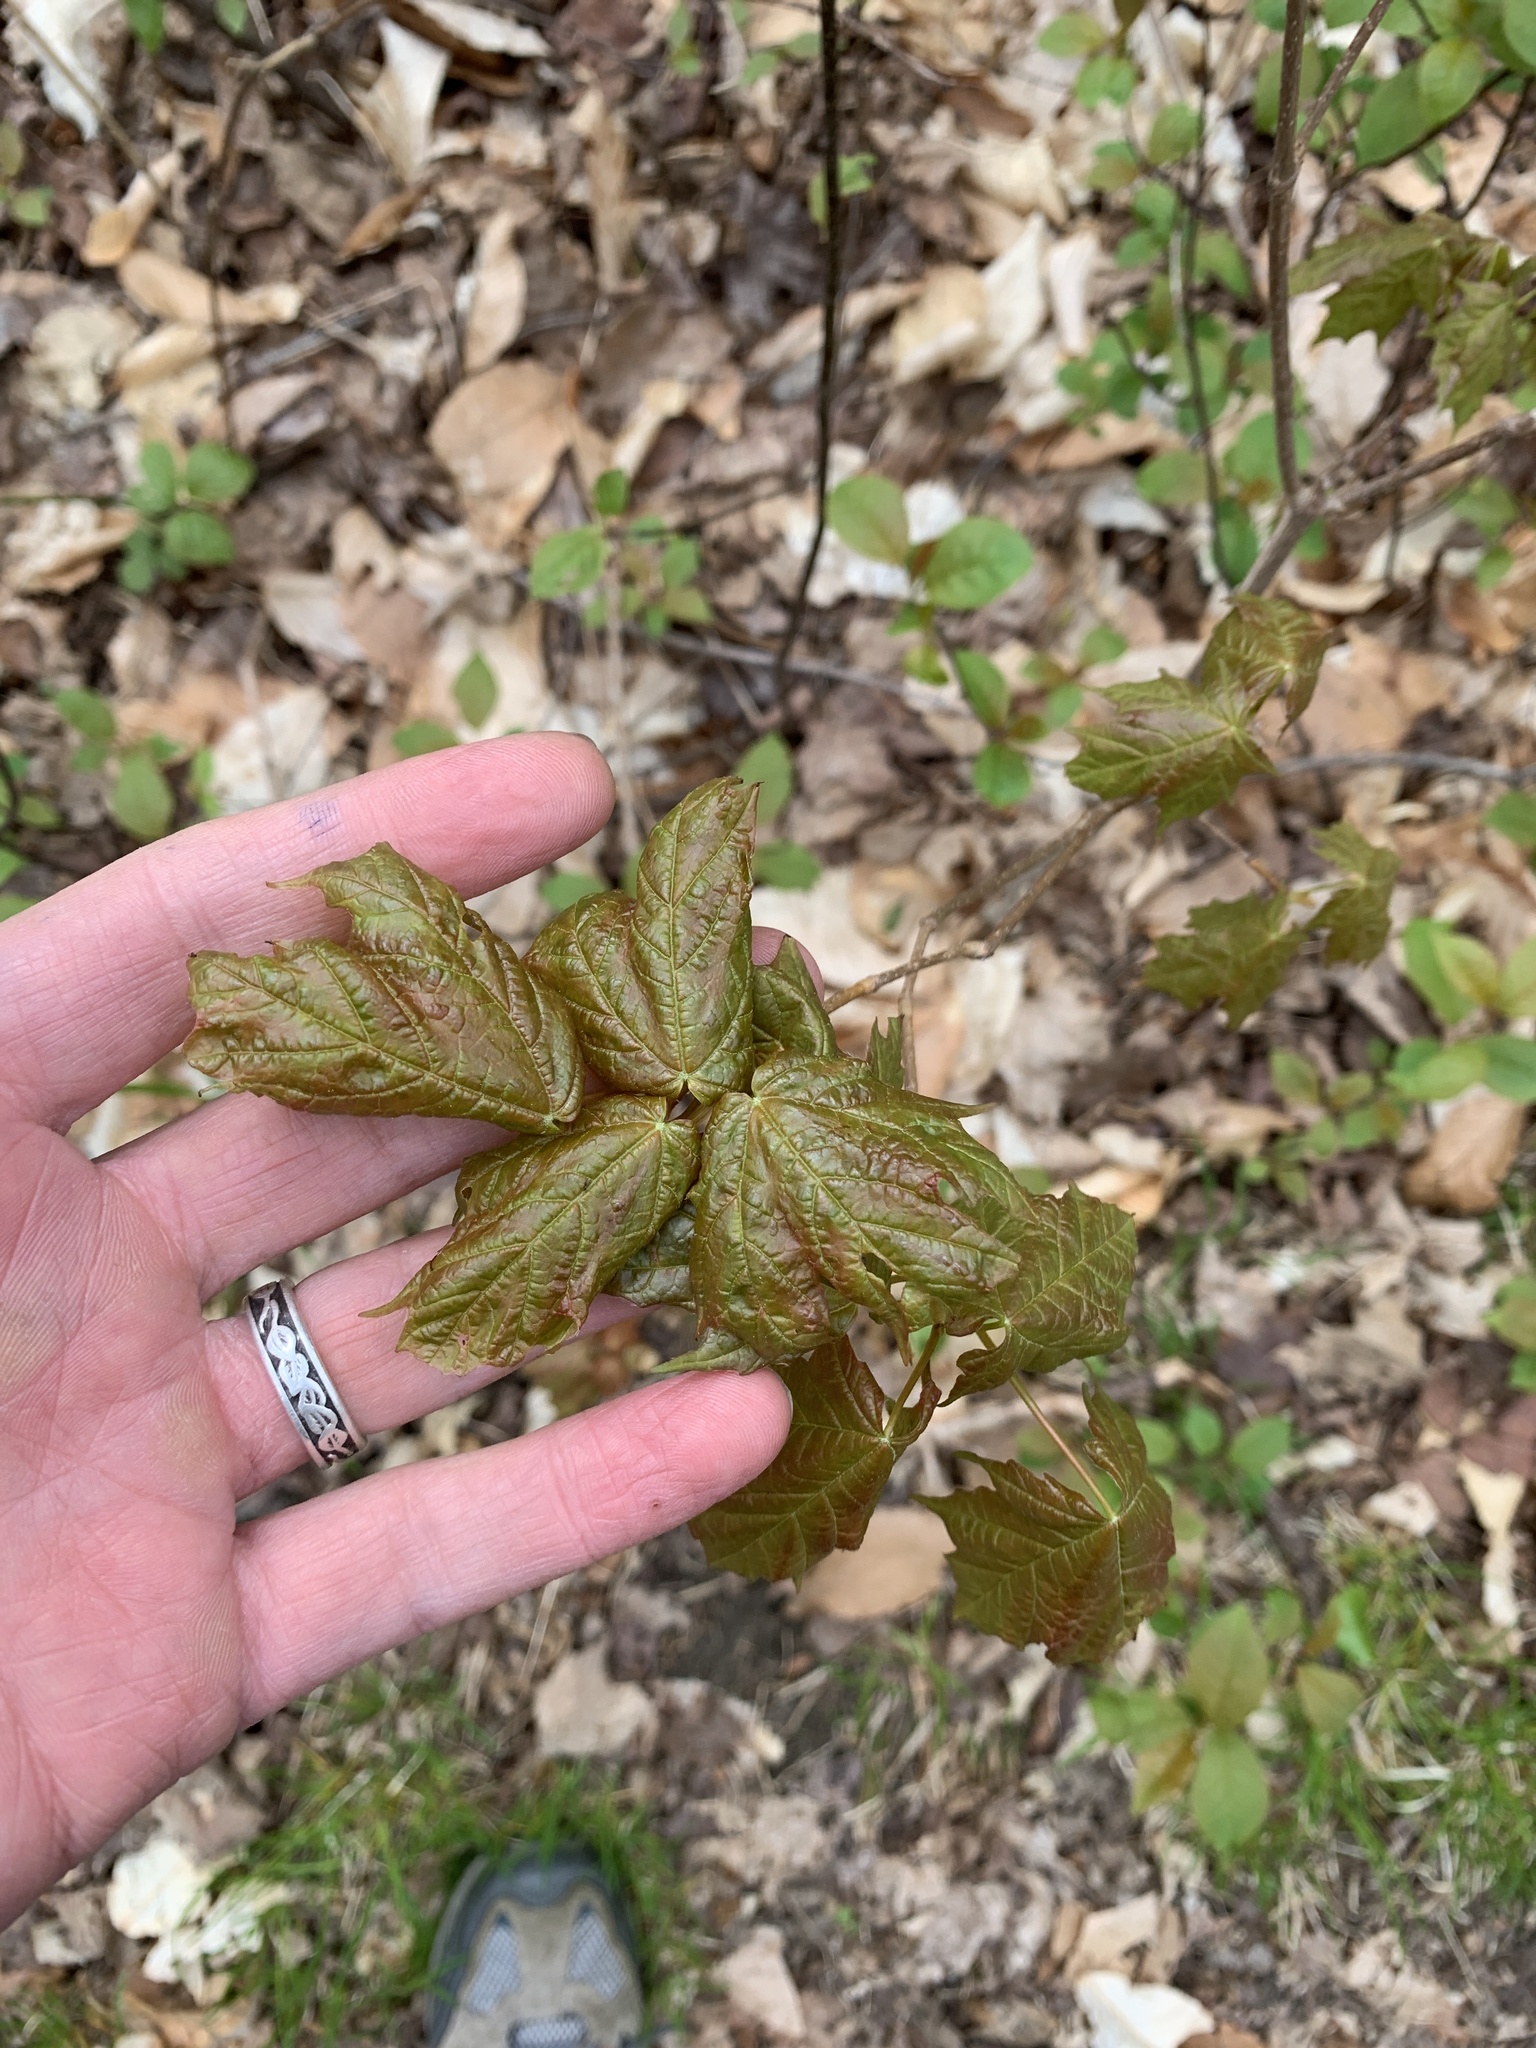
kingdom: Plantae
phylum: Tracheophyta
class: Magnoliopsida
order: Sapindales
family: Sapindaceae
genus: Acer
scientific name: Acer saccharum
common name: Sugar maple
